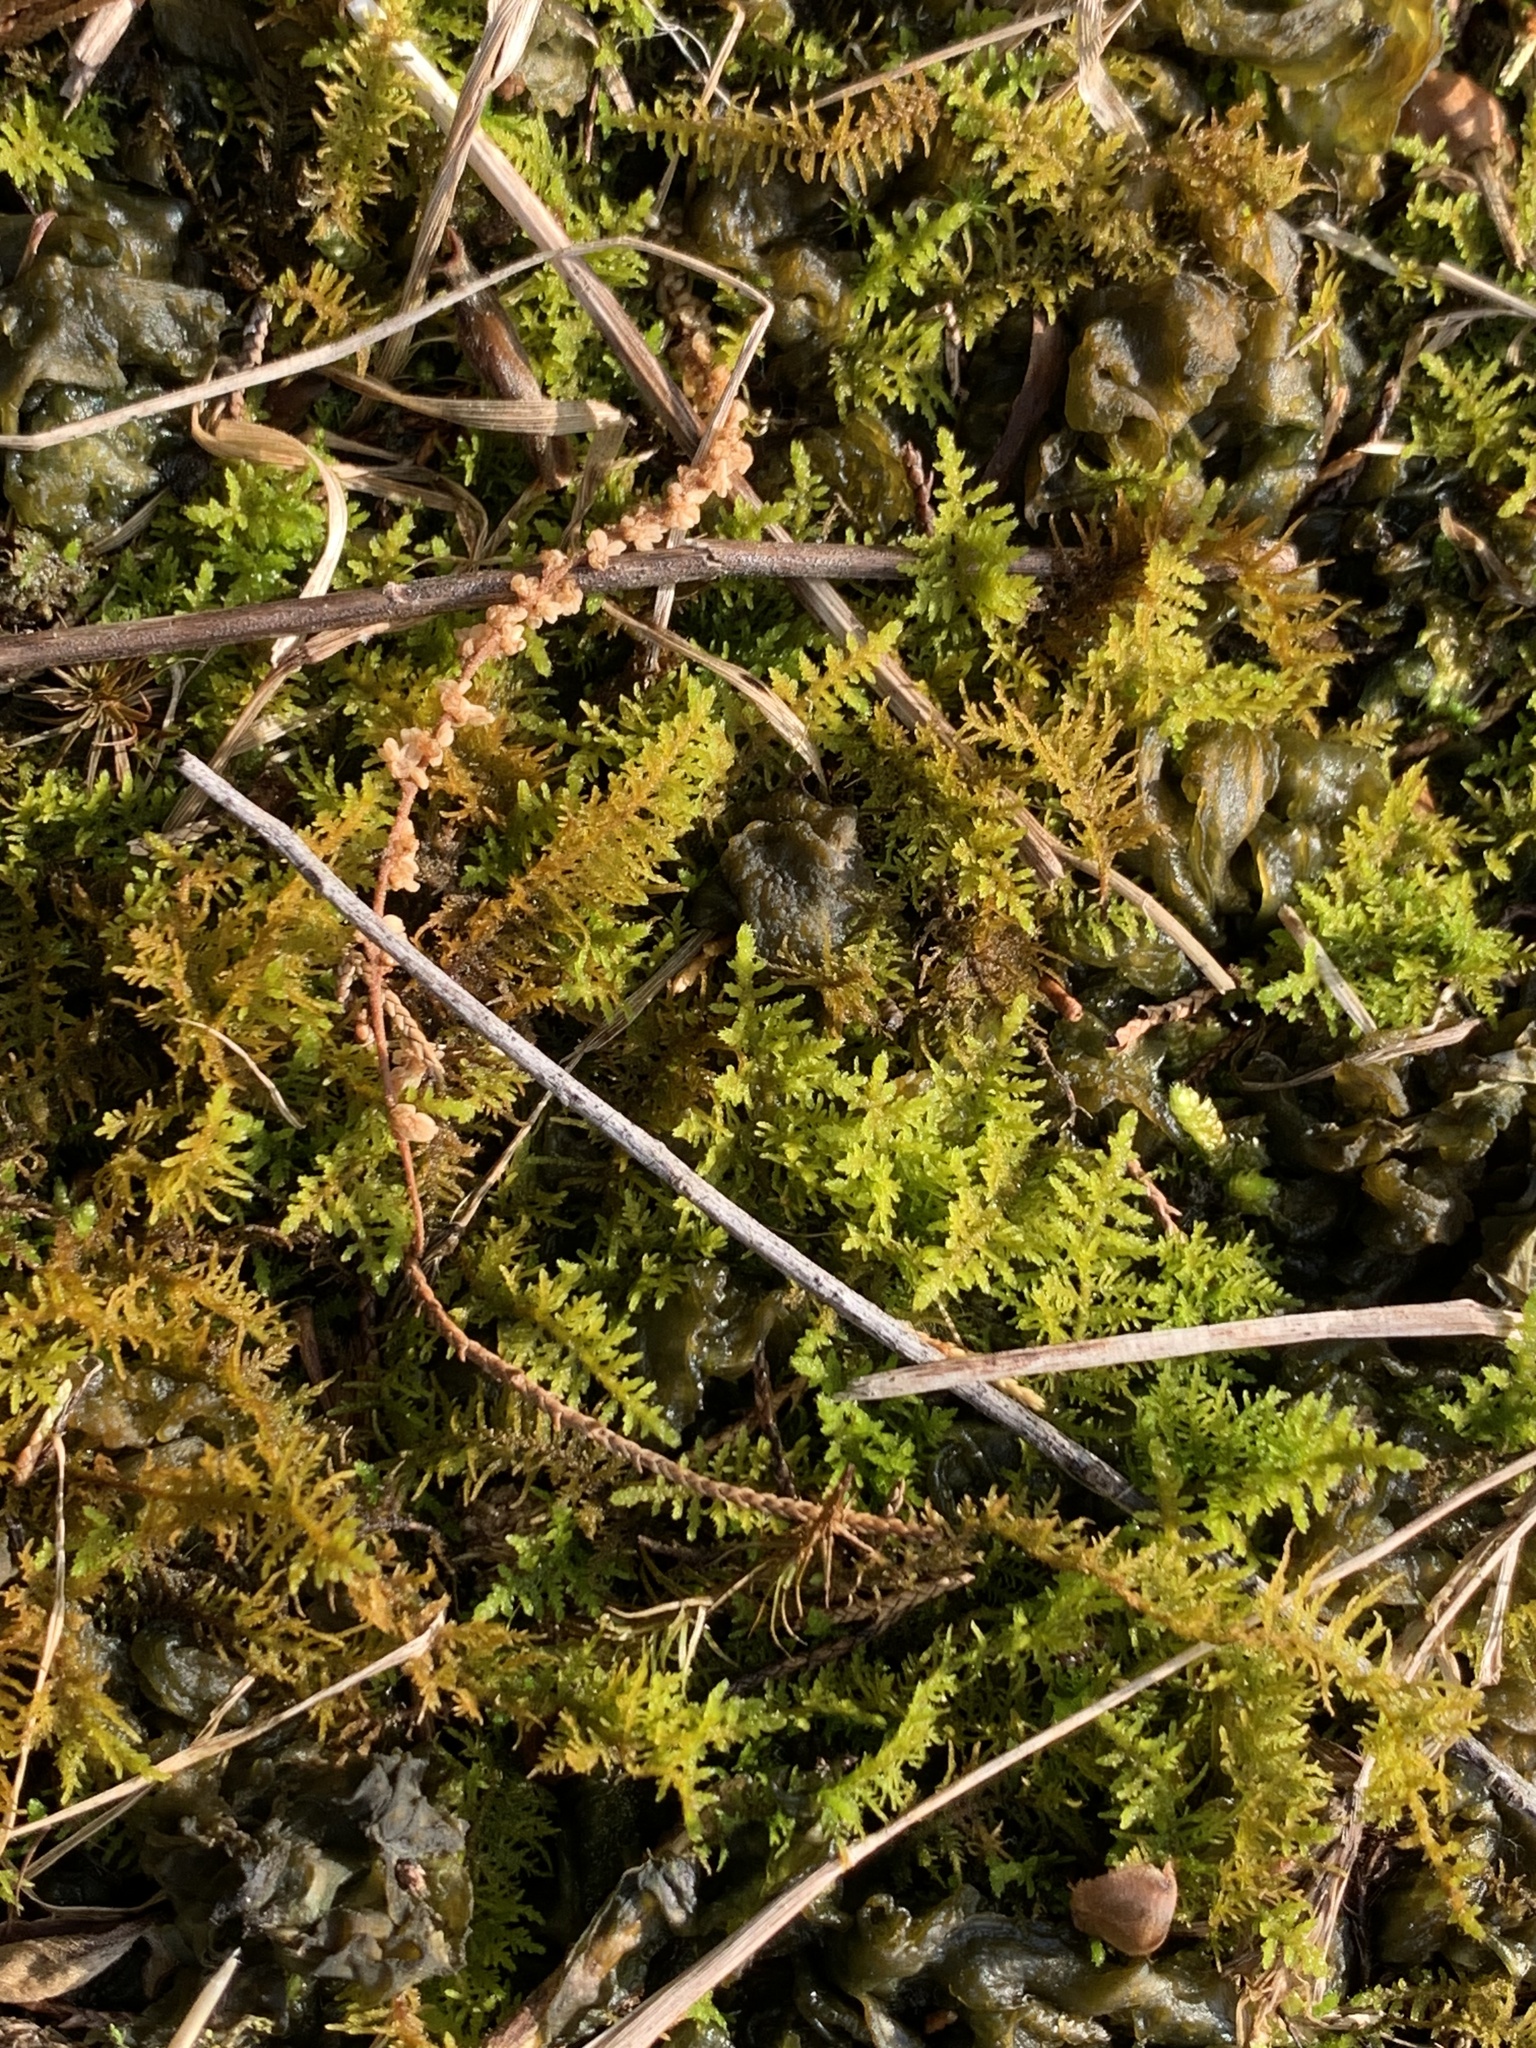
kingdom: Plantae
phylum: Bryophyta
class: Bryopsida
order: Hypnales
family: Thuidiaceae
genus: Thuidium
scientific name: Thuidium delicatulum
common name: Delicate fern moss
